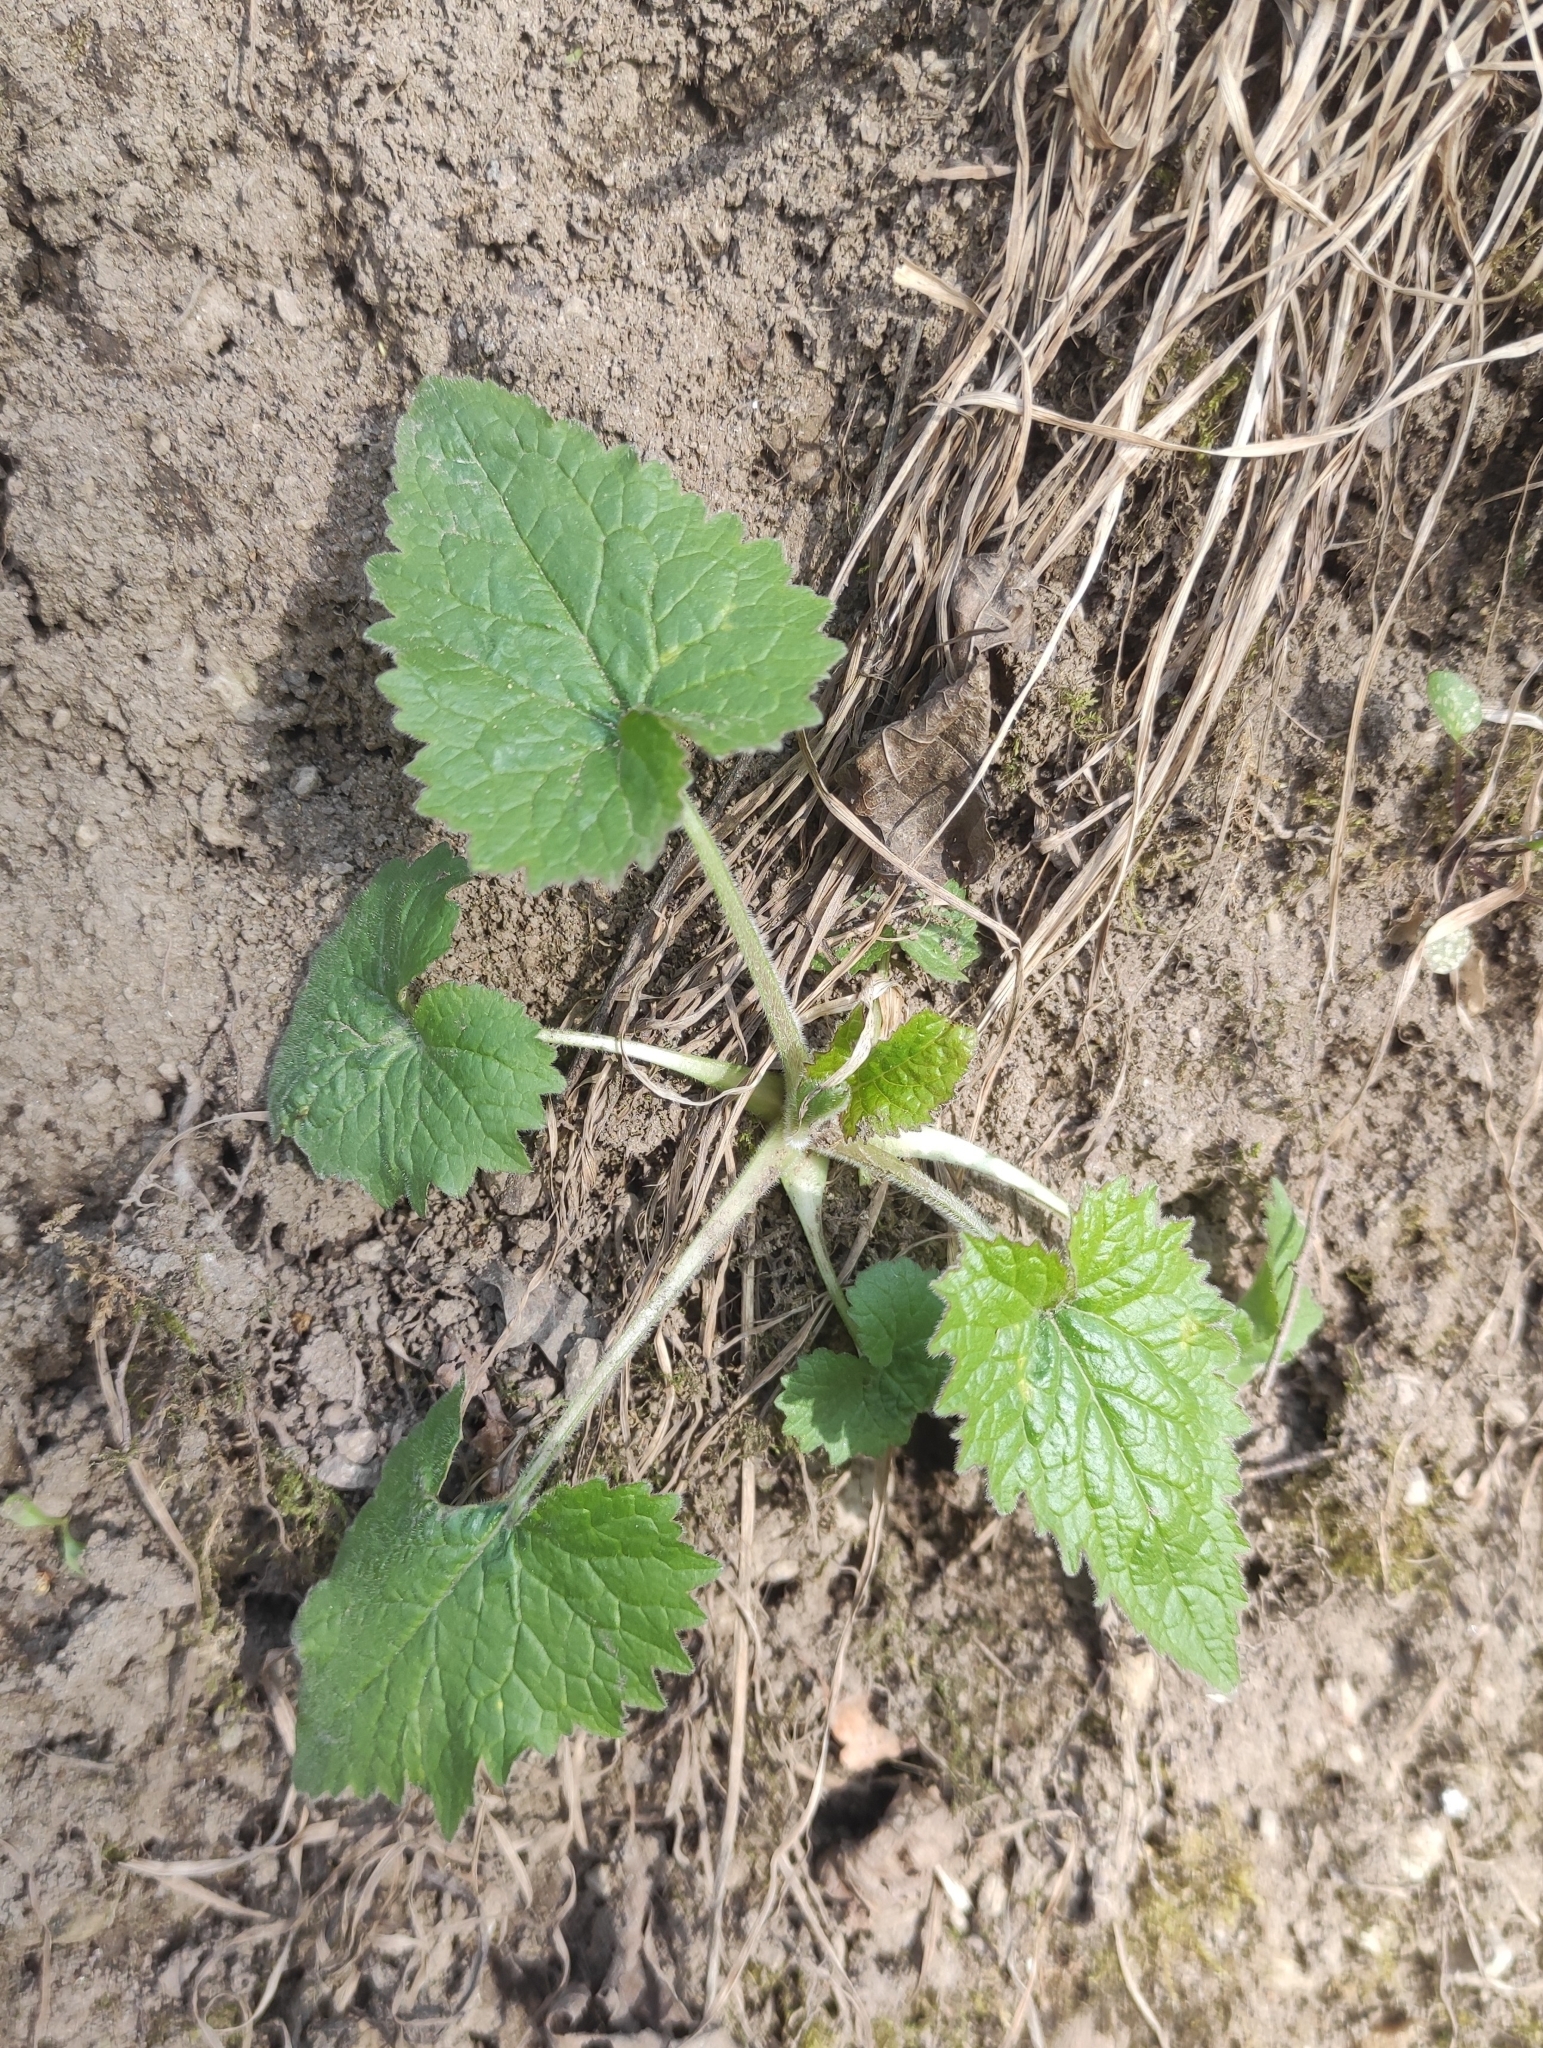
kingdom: Plantae
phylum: Tracheophyta
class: Magnoliopsida
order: Asterales
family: Campanulaceae
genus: Campanula
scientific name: Campanula trachelium
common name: Nettle-leaved bellflower
